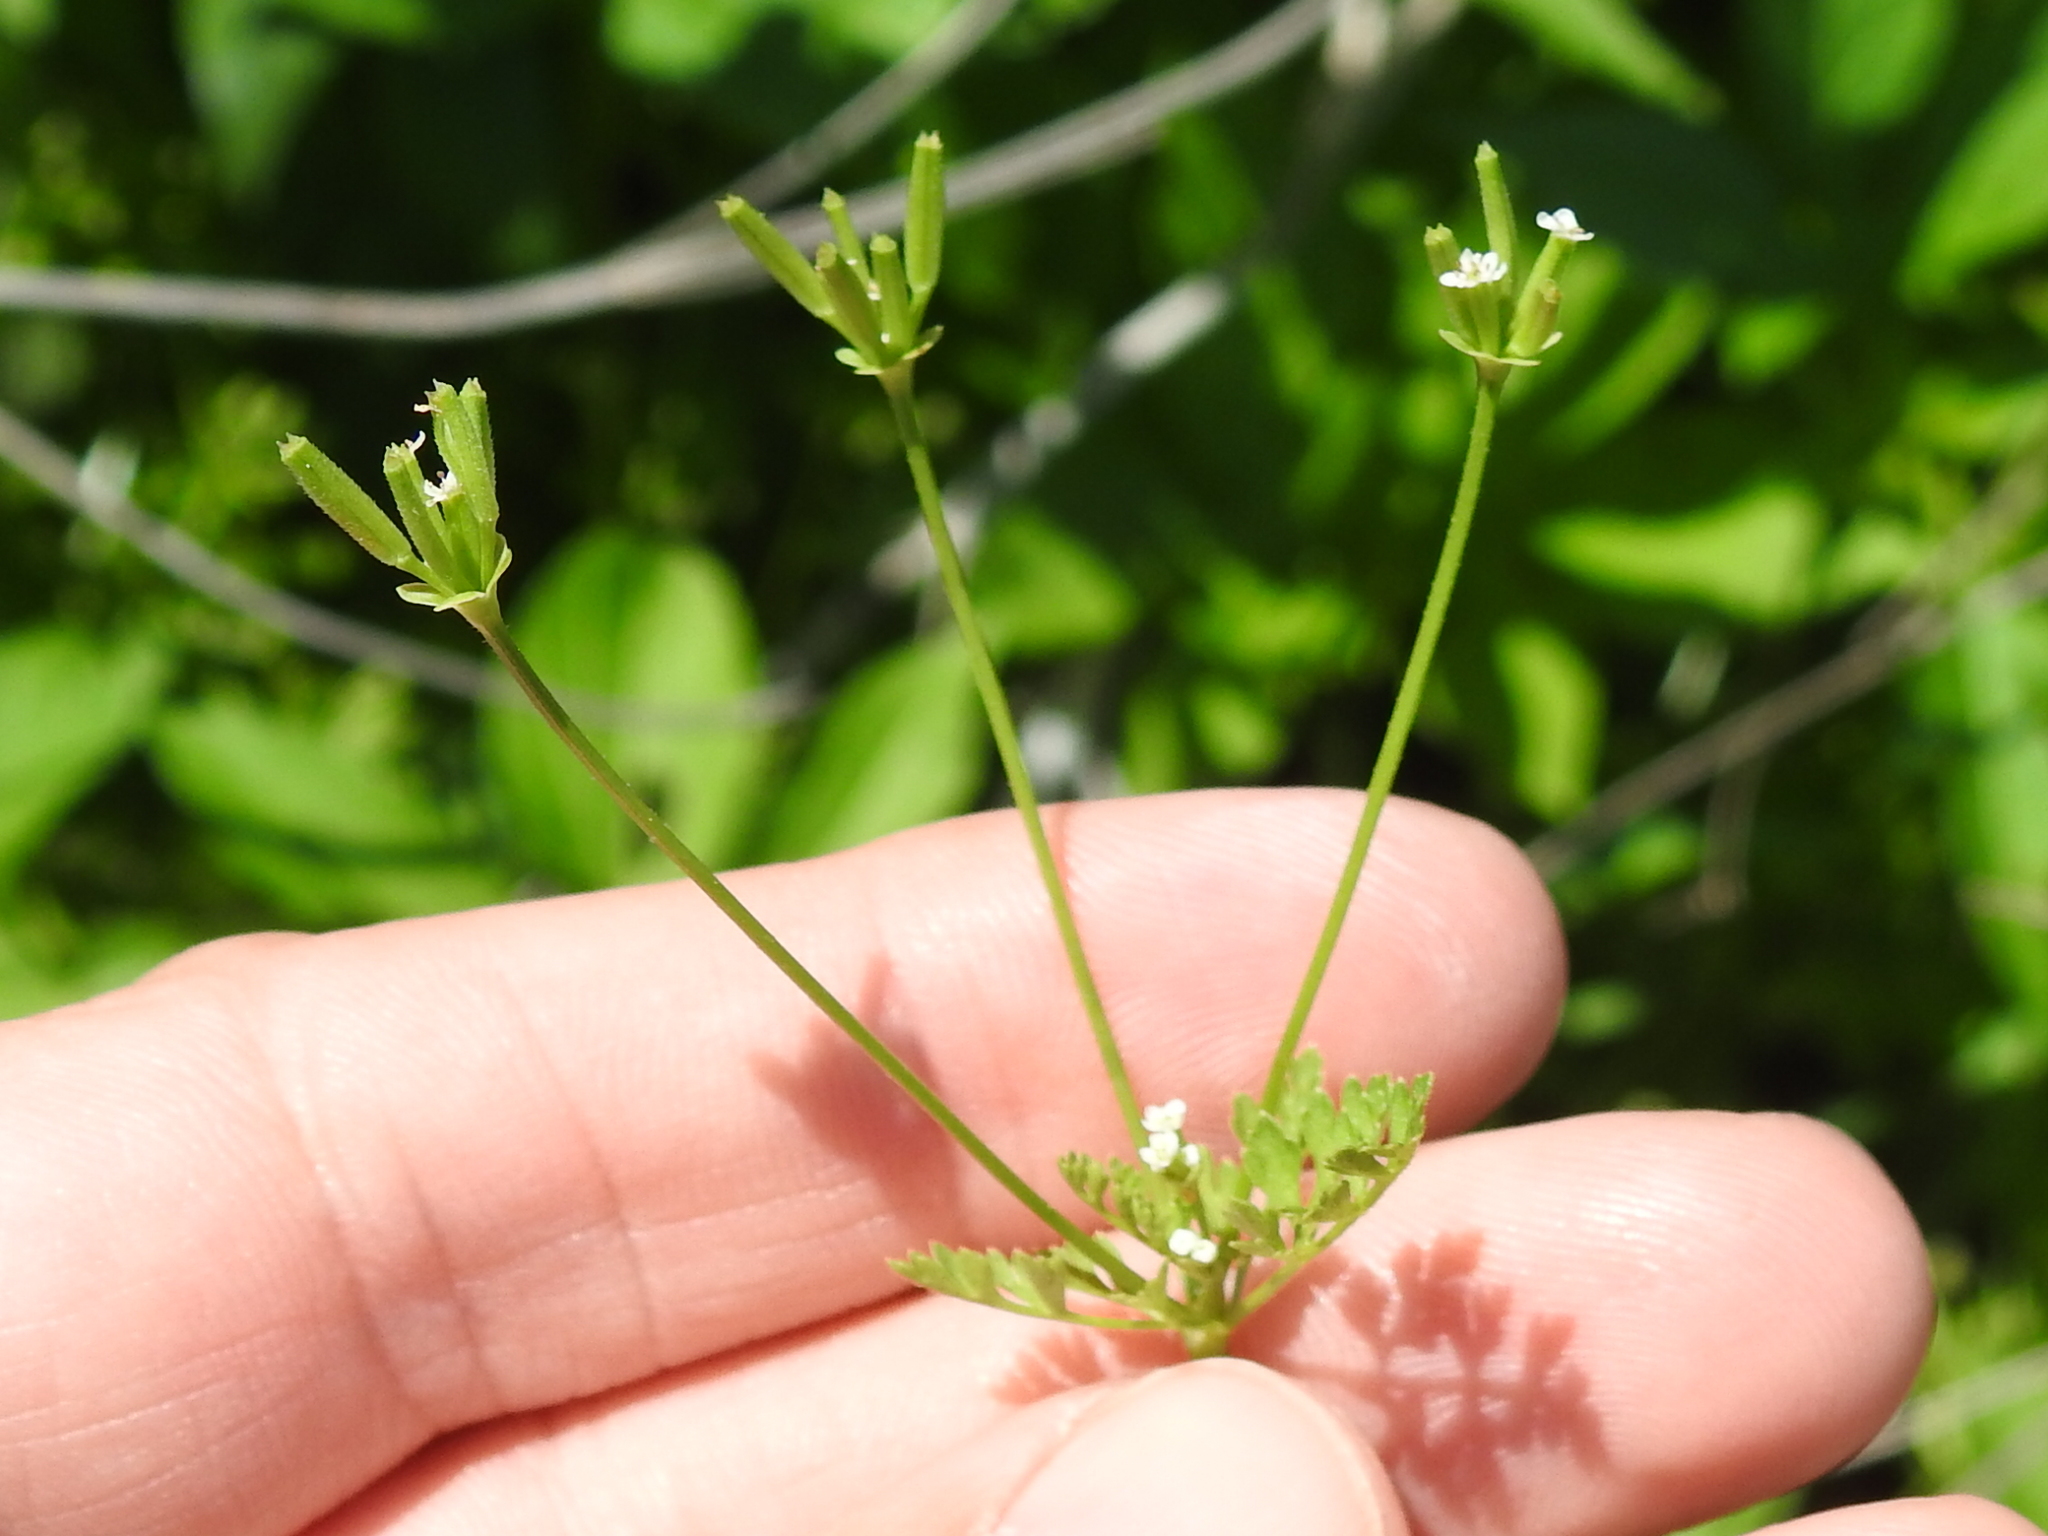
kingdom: Plantae
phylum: Tracheophyta
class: Magnoliopsida
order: Apiales
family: Apiaceae
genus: Chaerophyllum
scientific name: Chaerophyllum tainturieri
